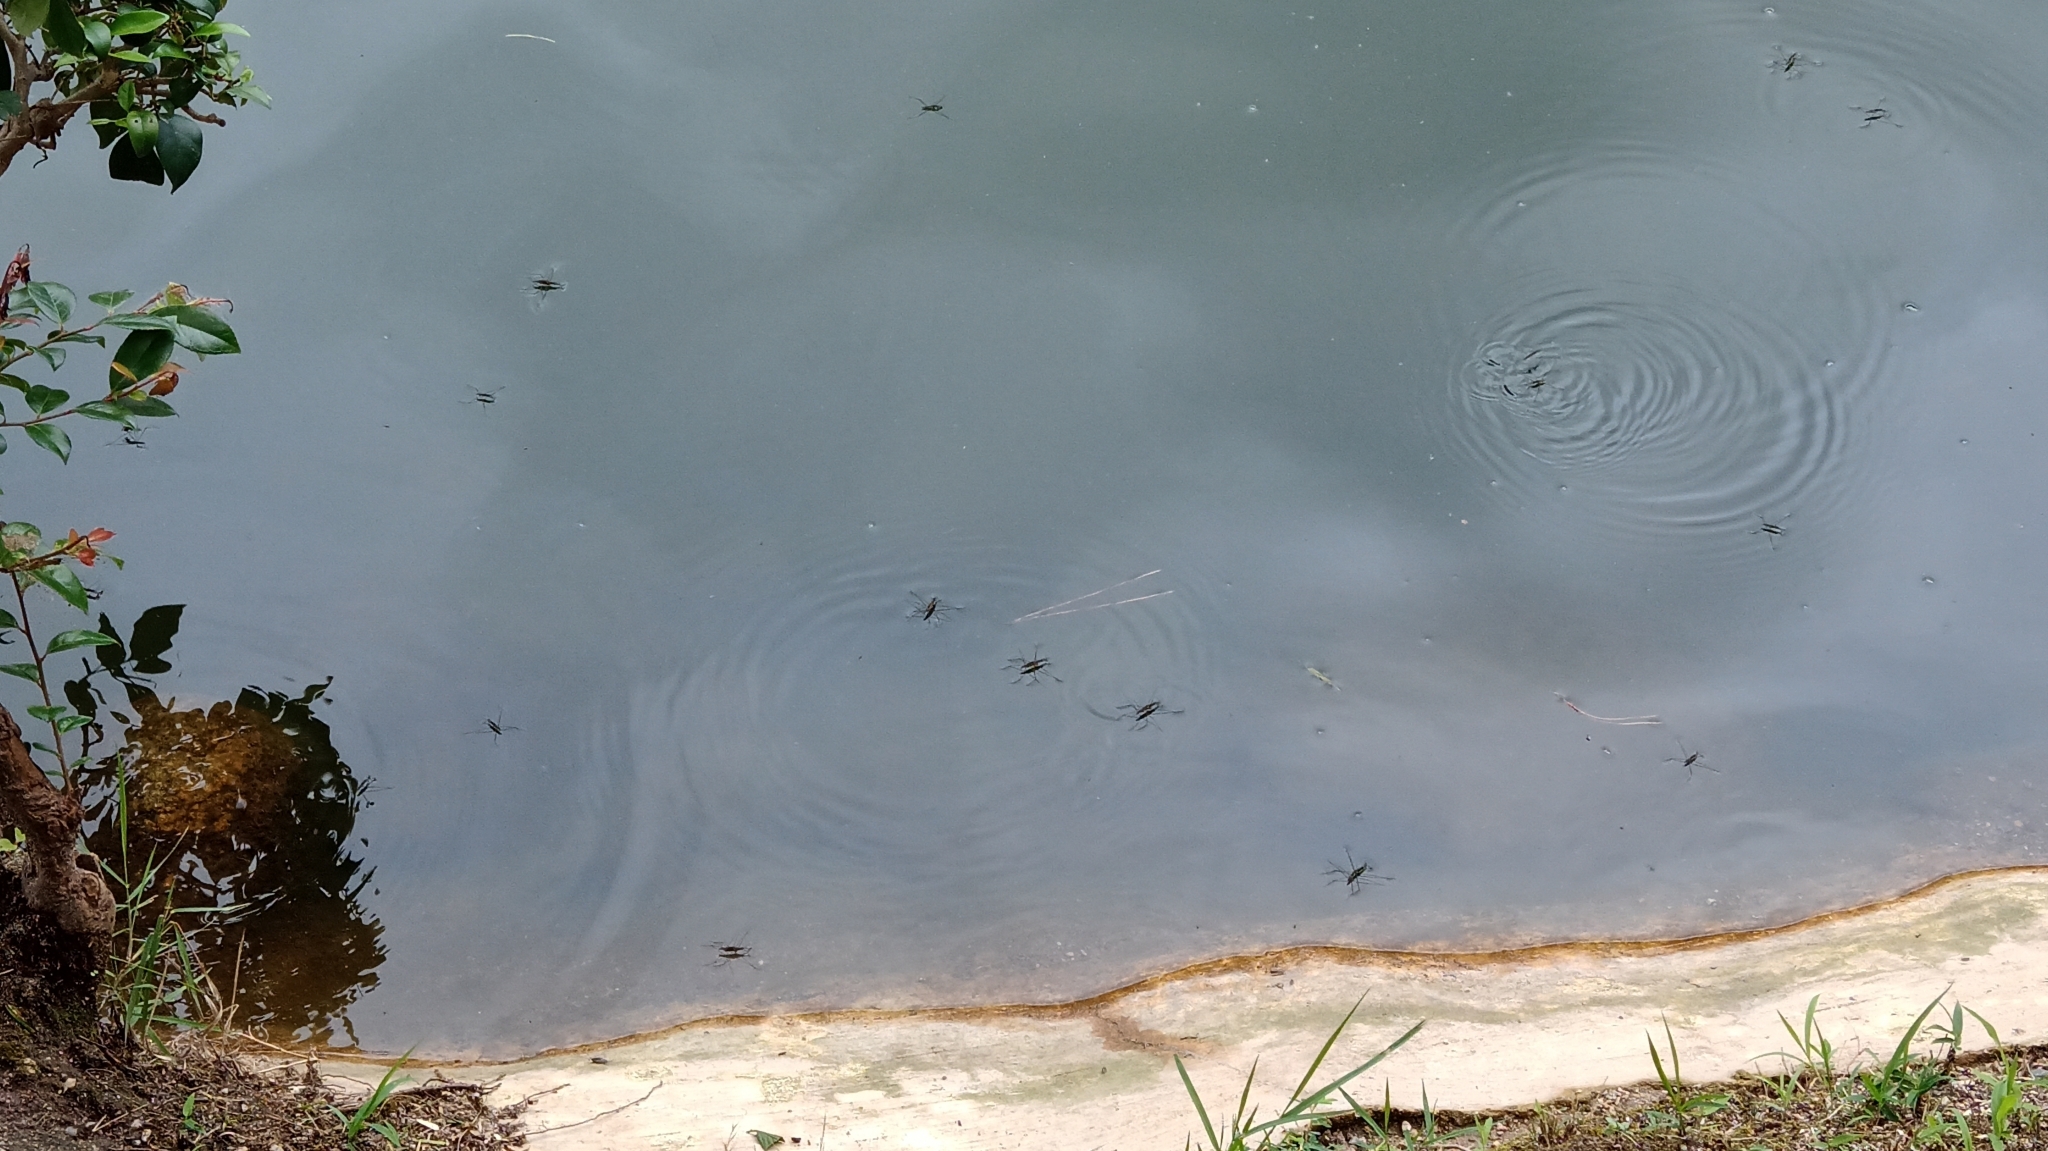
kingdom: Animalia
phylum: Arthropoda
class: Insecta
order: Hemiptera
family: Gerridae
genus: Aquarius
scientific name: Aquarius paludum
